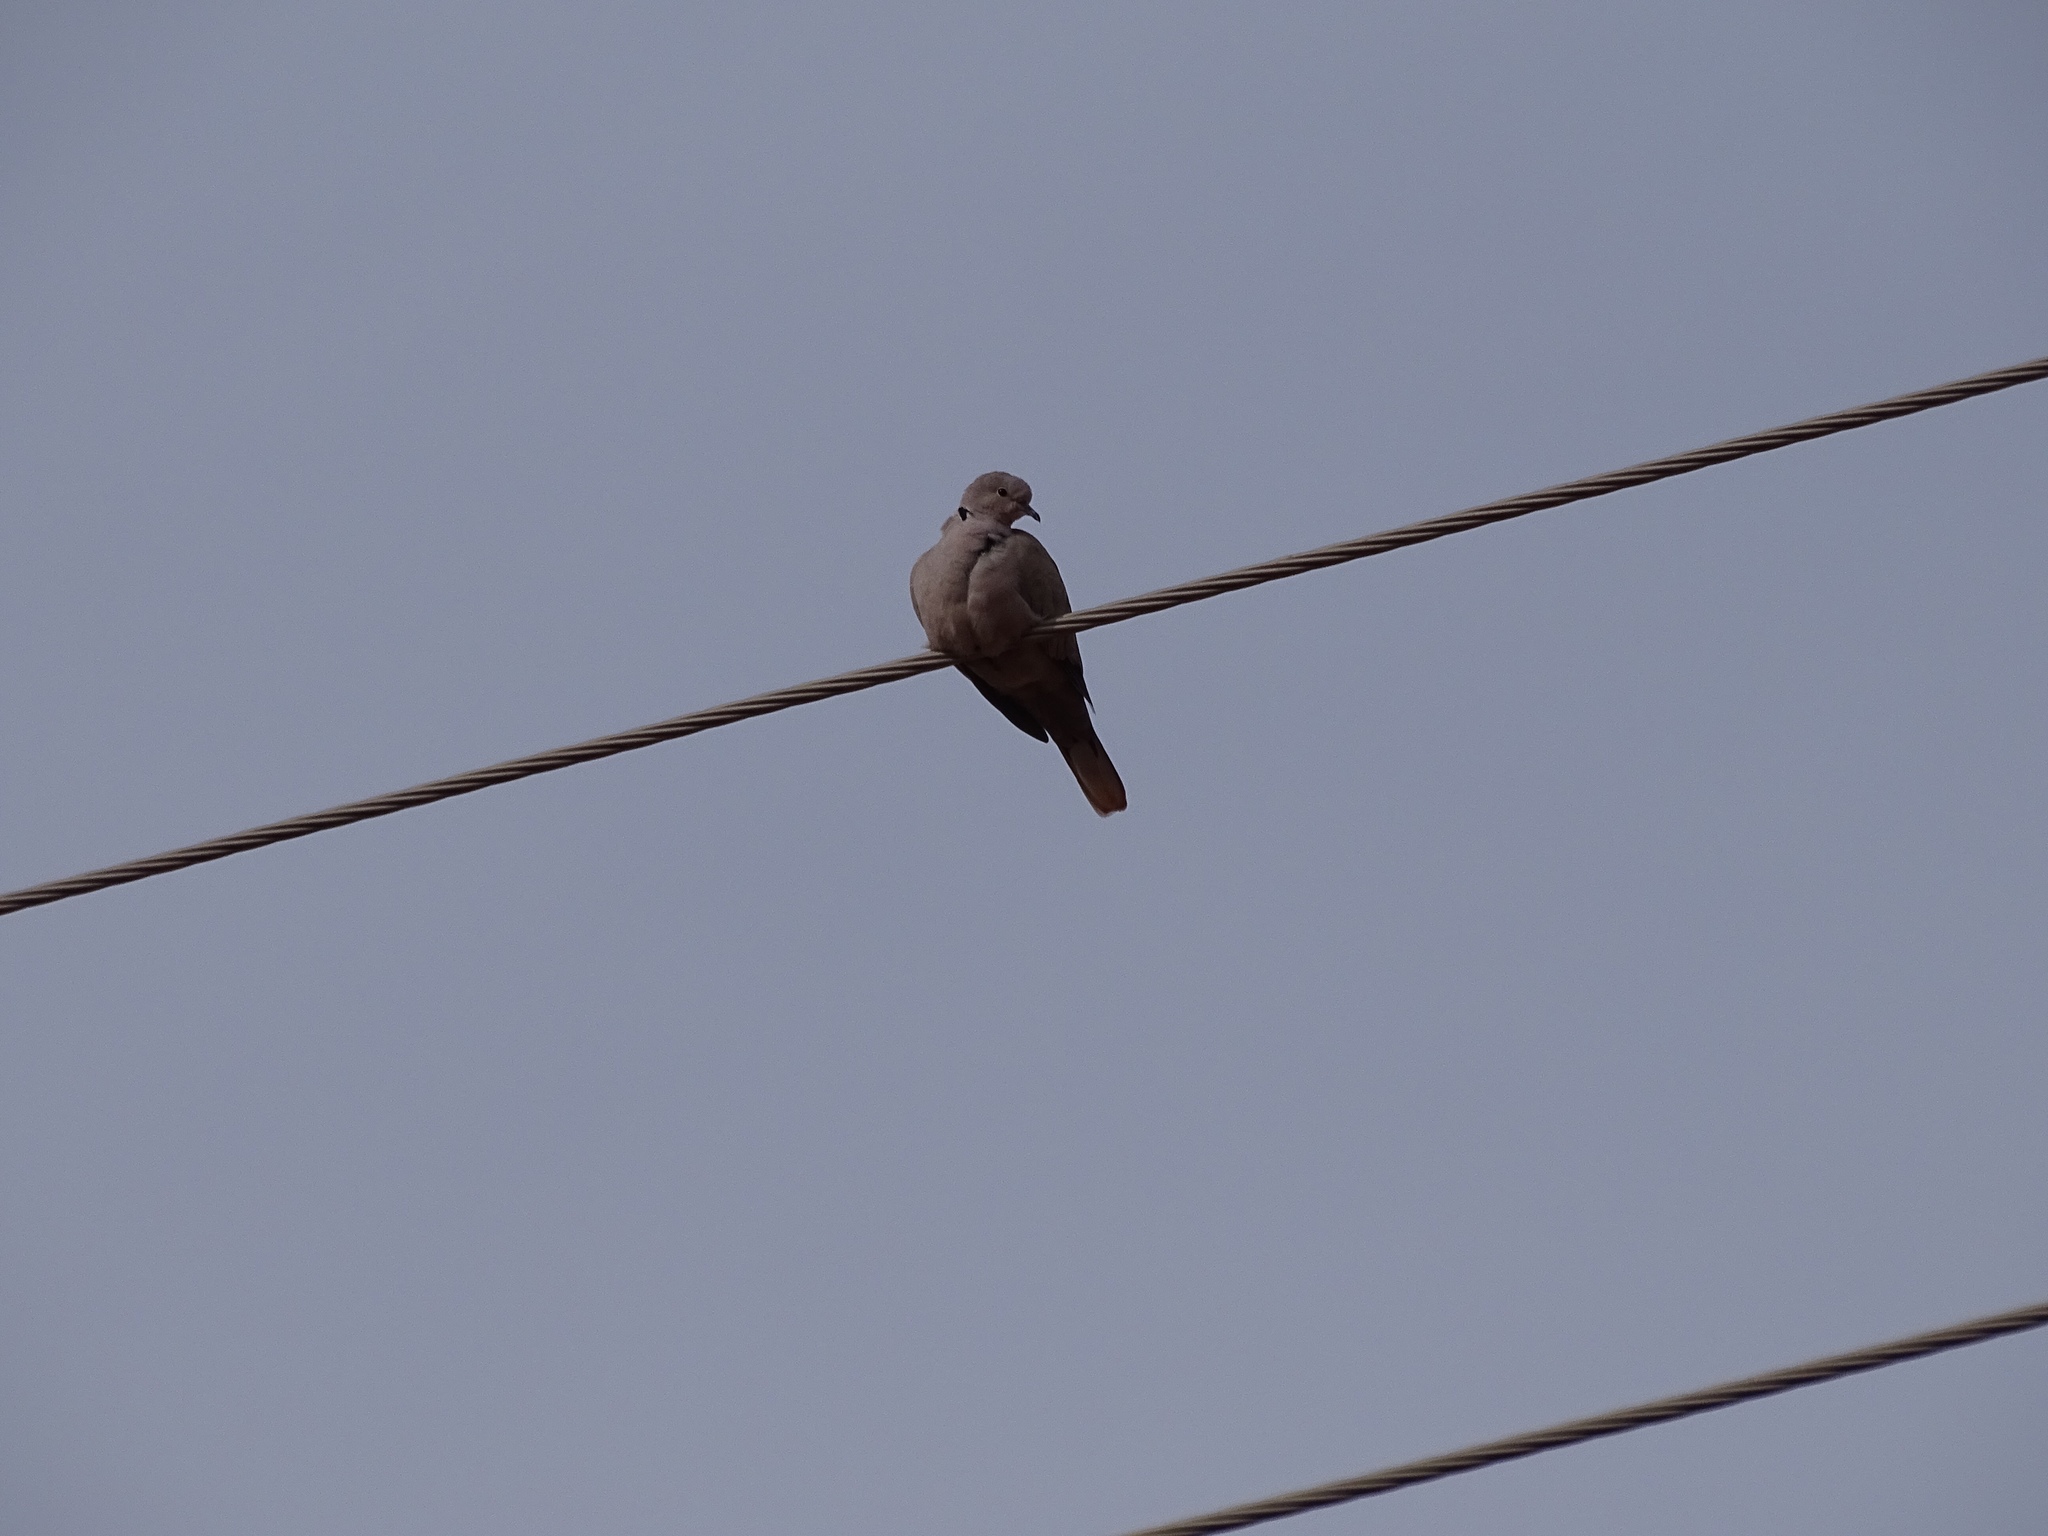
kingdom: Animalia
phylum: Chordata
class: Aves
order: Columbiformes
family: Columbidae
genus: Streptopelia
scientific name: Streptopelia decaocto
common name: Eurasian collared dove
